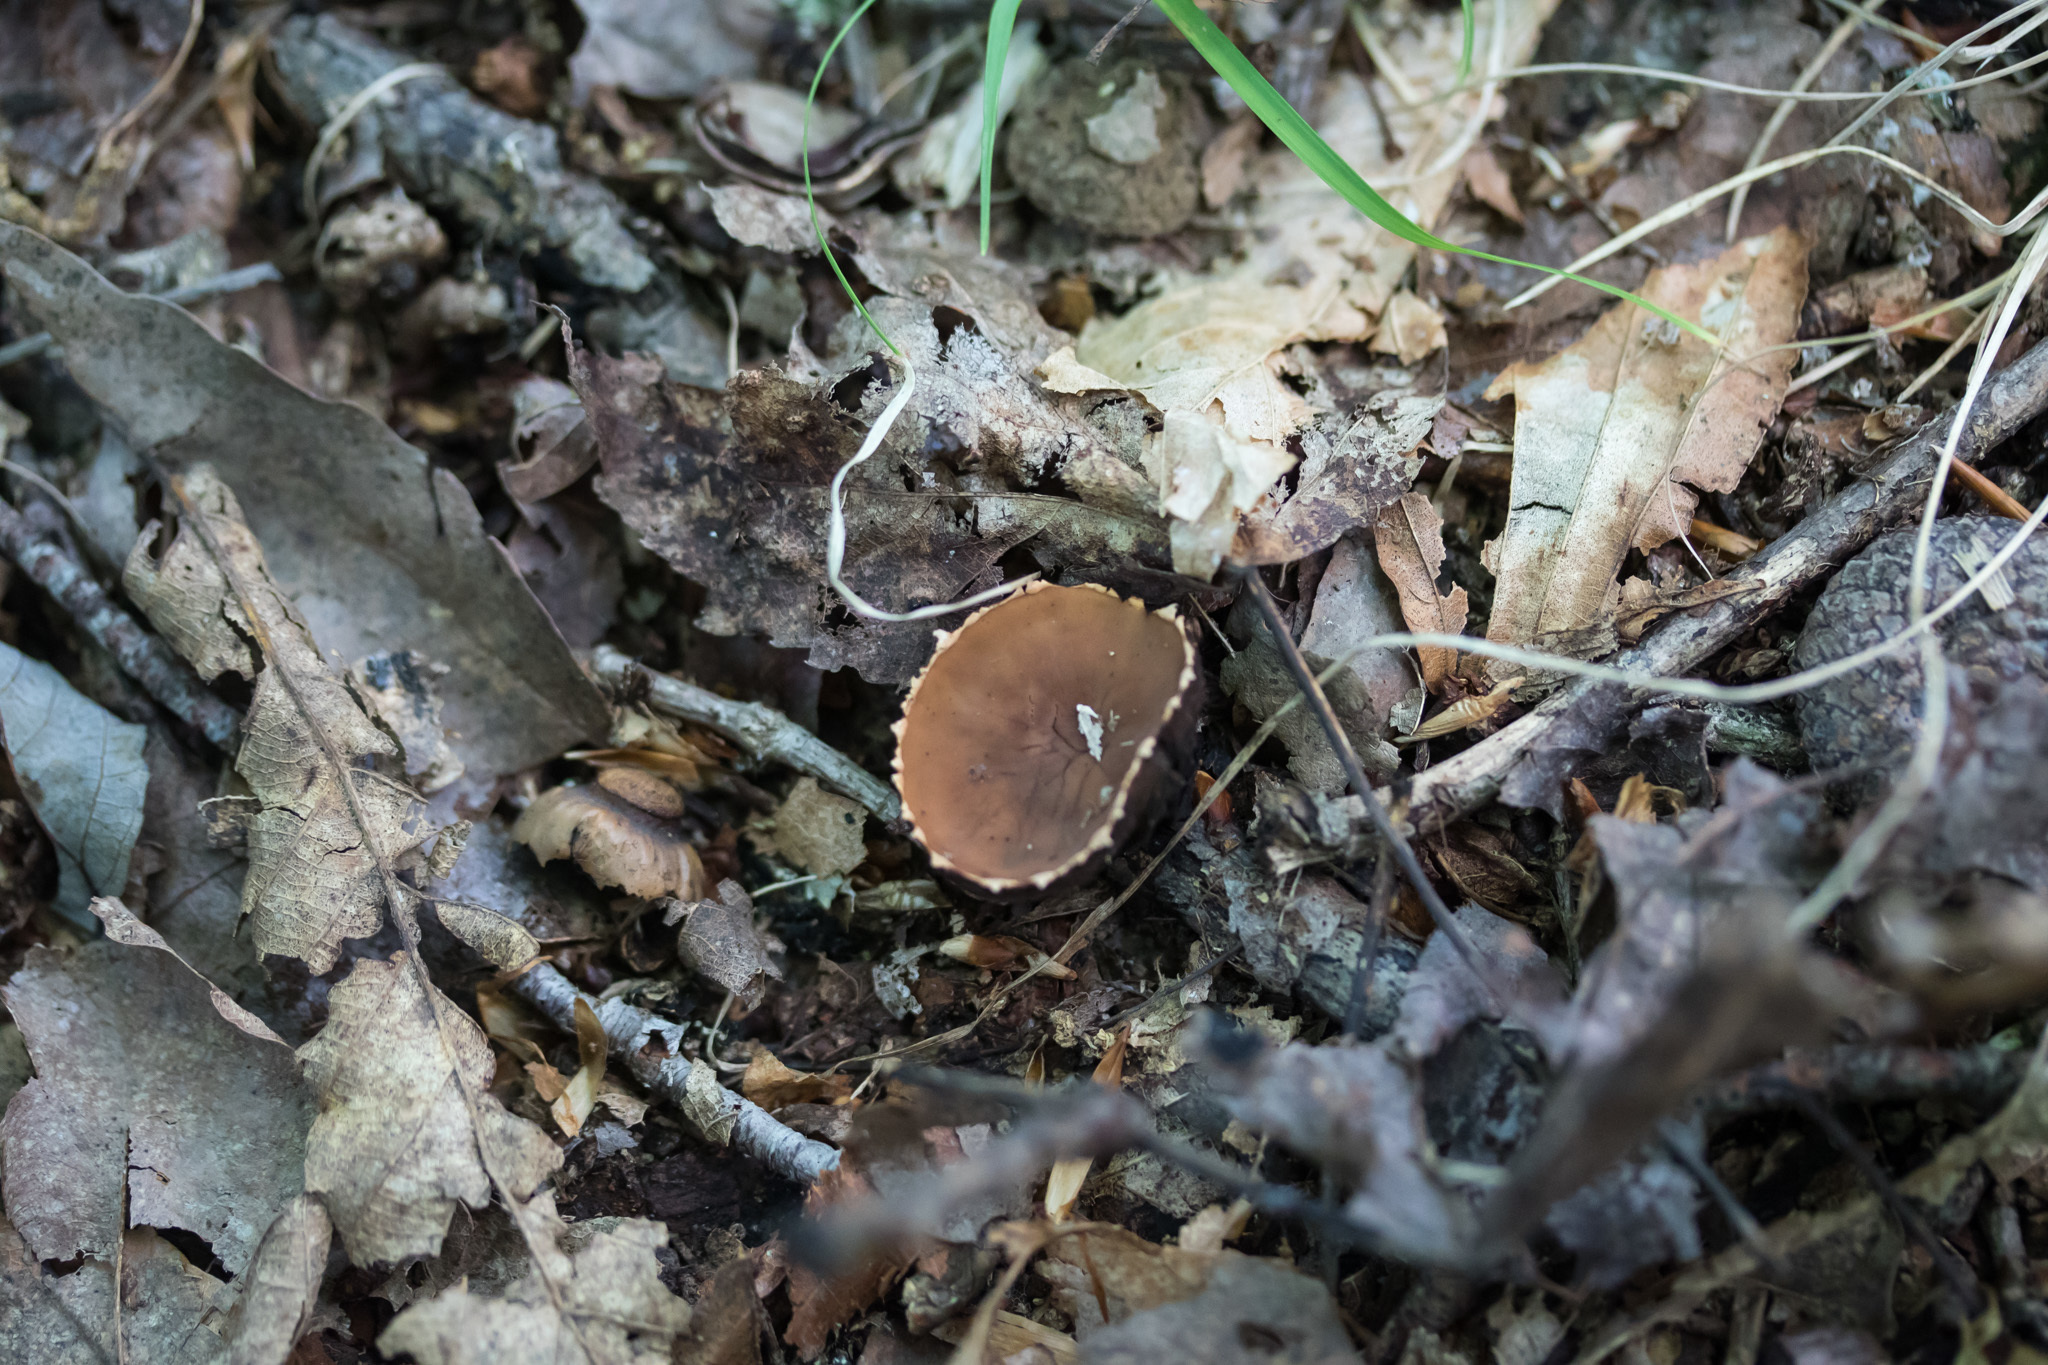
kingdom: Fungi
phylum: Ascomycota
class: Pezizomycetes
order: Pezizales
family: Sarcosomataceae
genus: Galiella
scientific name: Galiella rufa
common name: Hairy rubber cup
